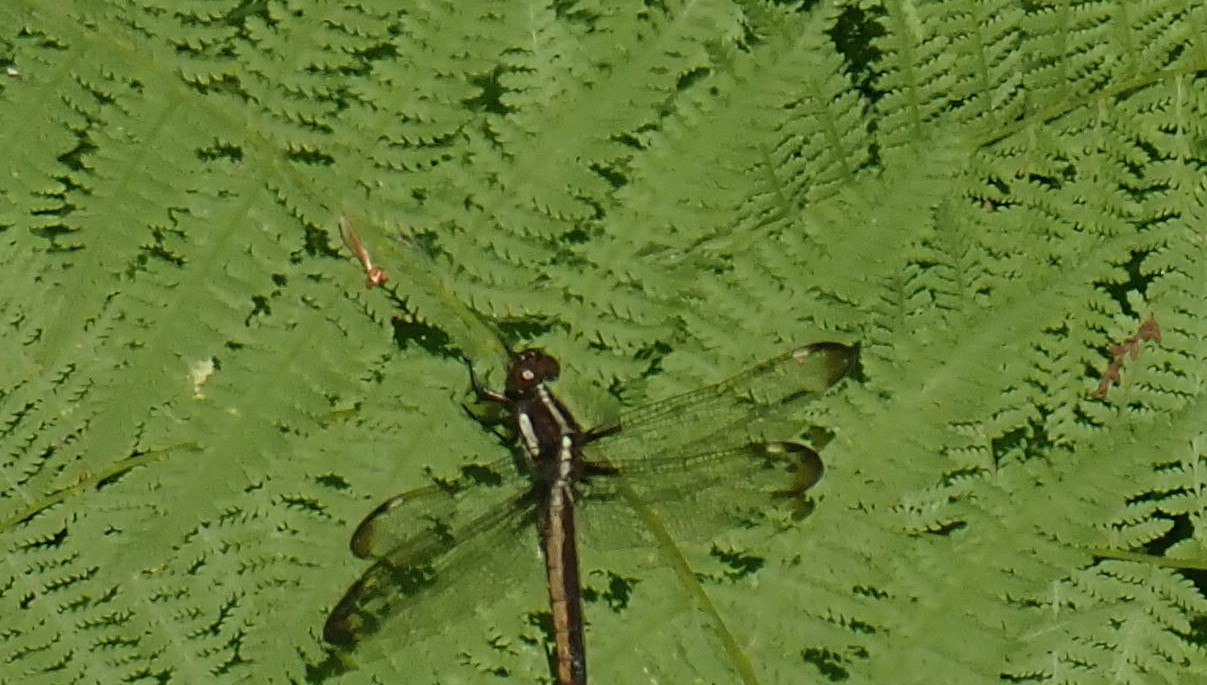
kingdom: Animalia
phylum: Arthropoda
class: Insecta
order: Odonata
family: Libellulidae
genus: Libellula
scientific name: Libellula cyanea
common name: Spangled skimmer
